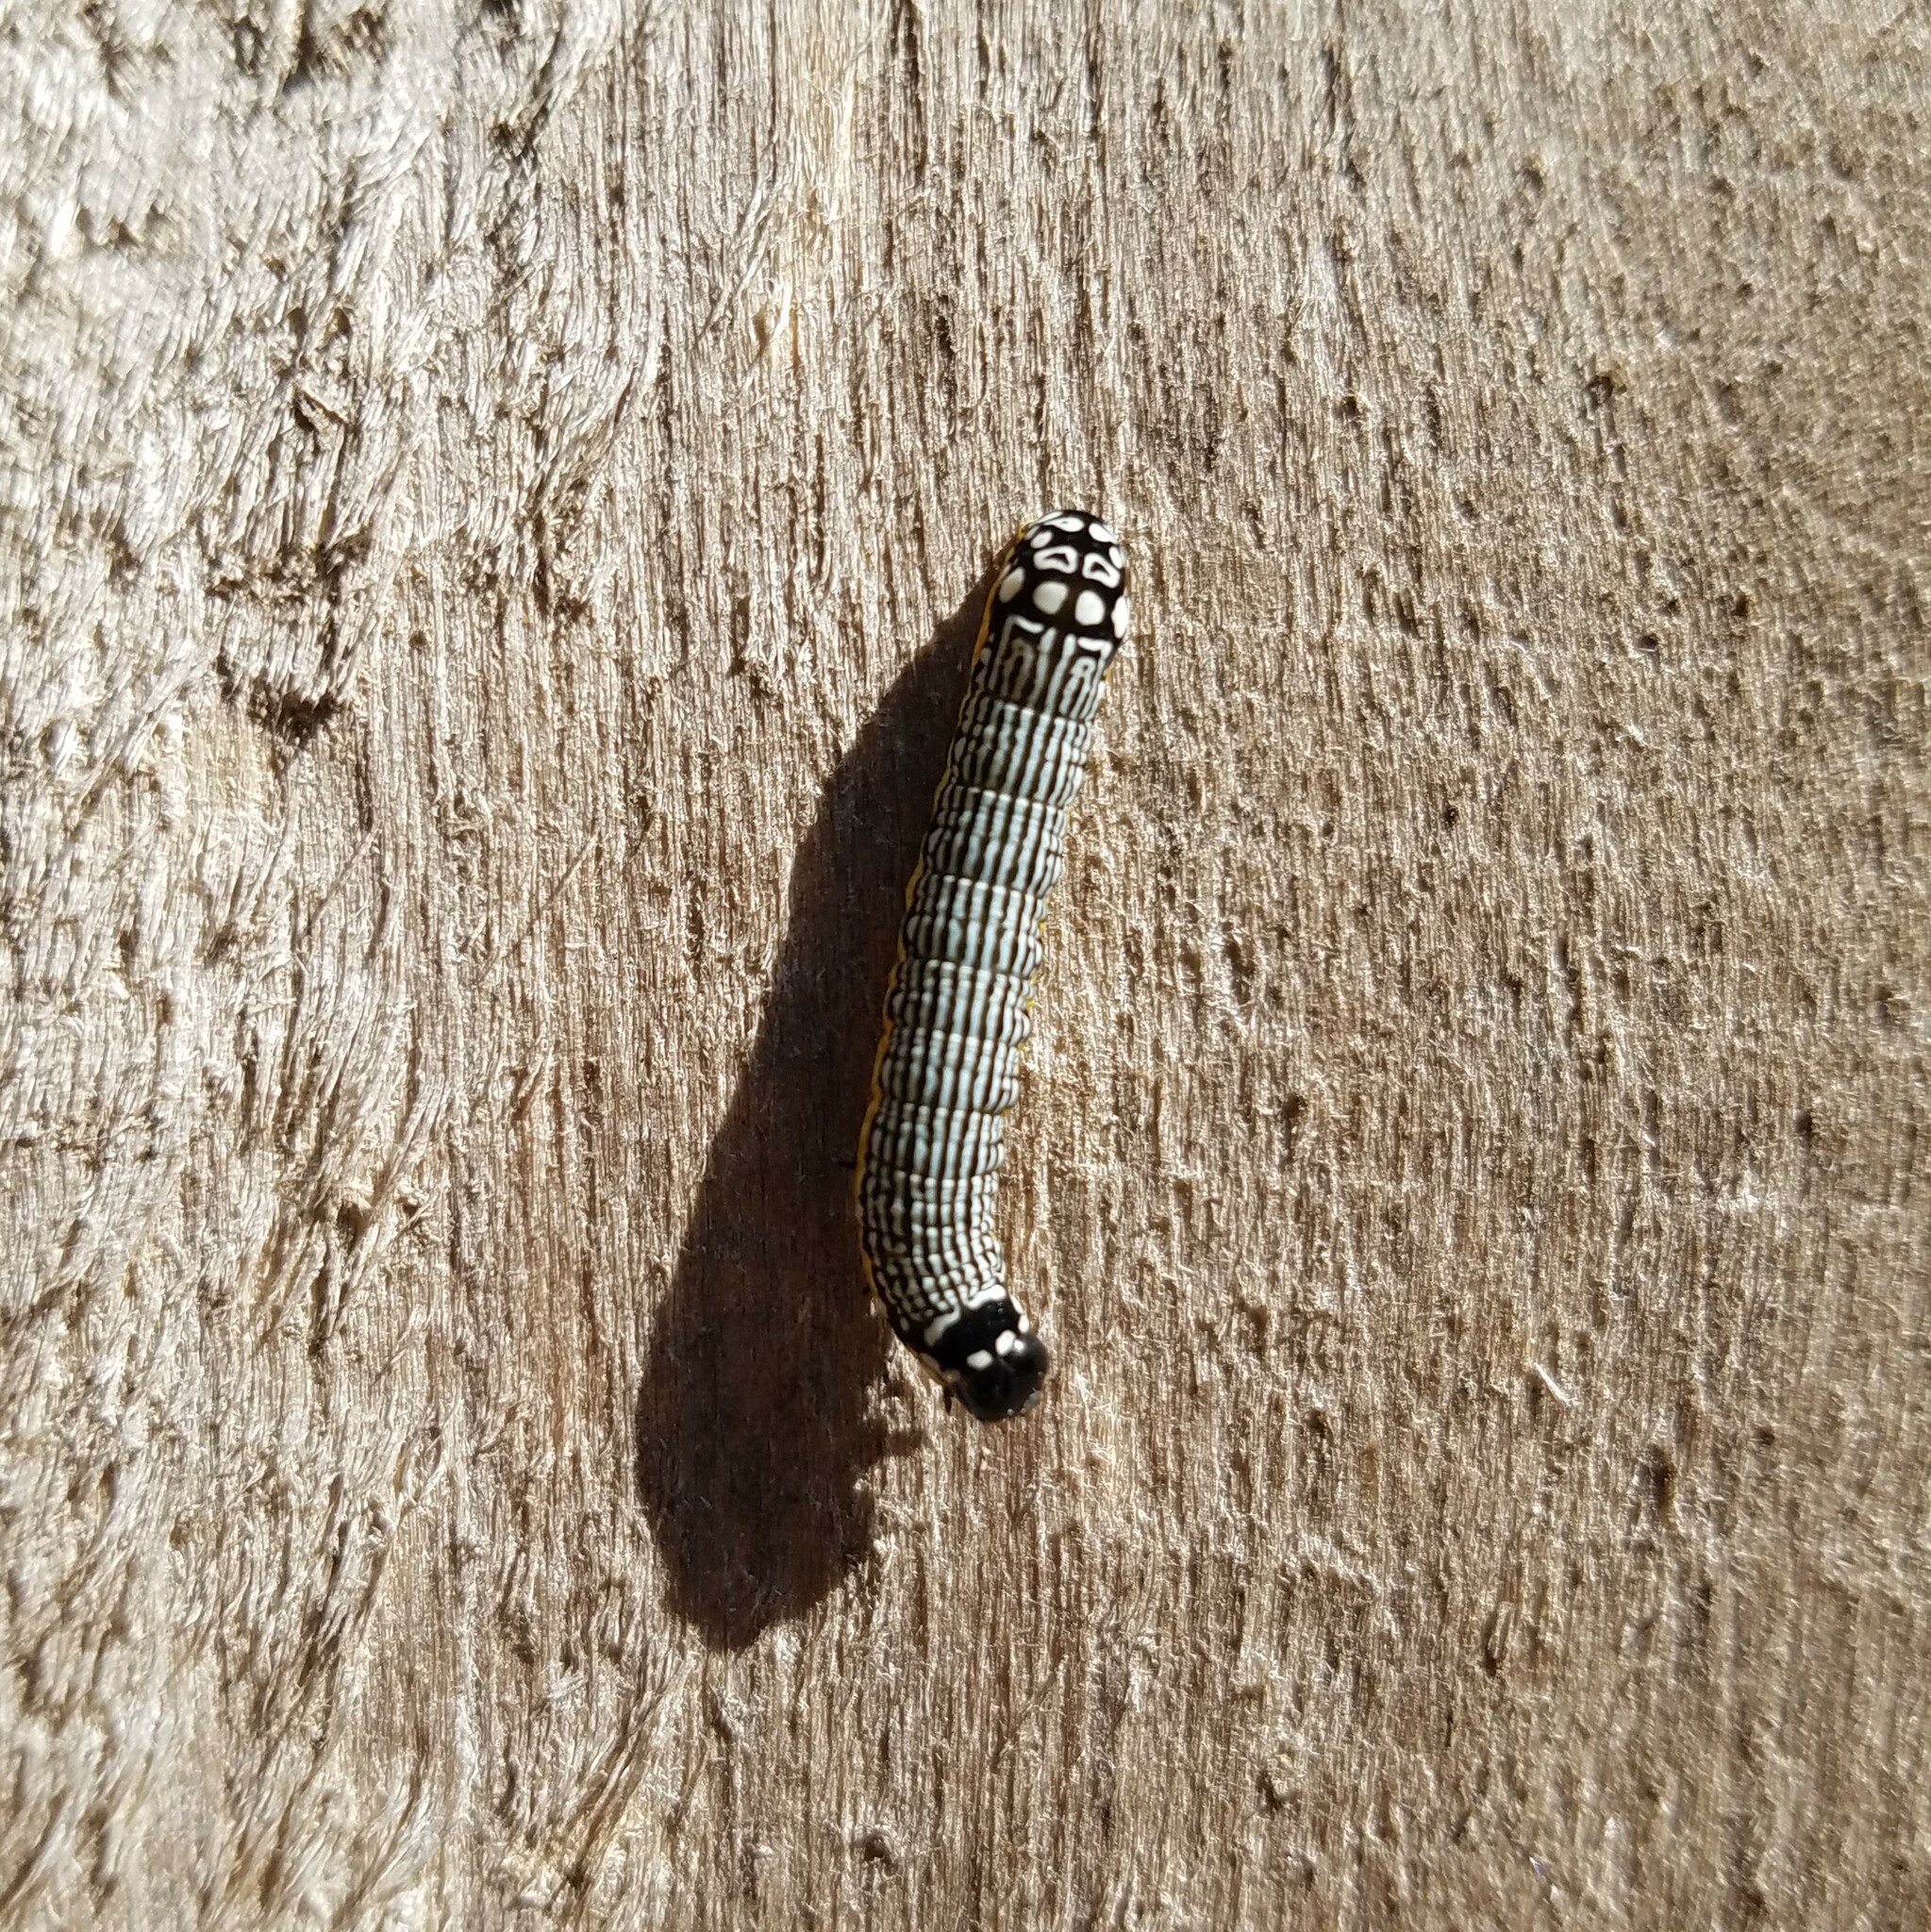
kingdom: Animalia
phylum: Arthropoda
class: Insecta
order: Lepidoptera
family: Noctuidae
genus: Phosphila
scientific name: Phosphila turbulenta
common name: Turbulent phosphila moth
